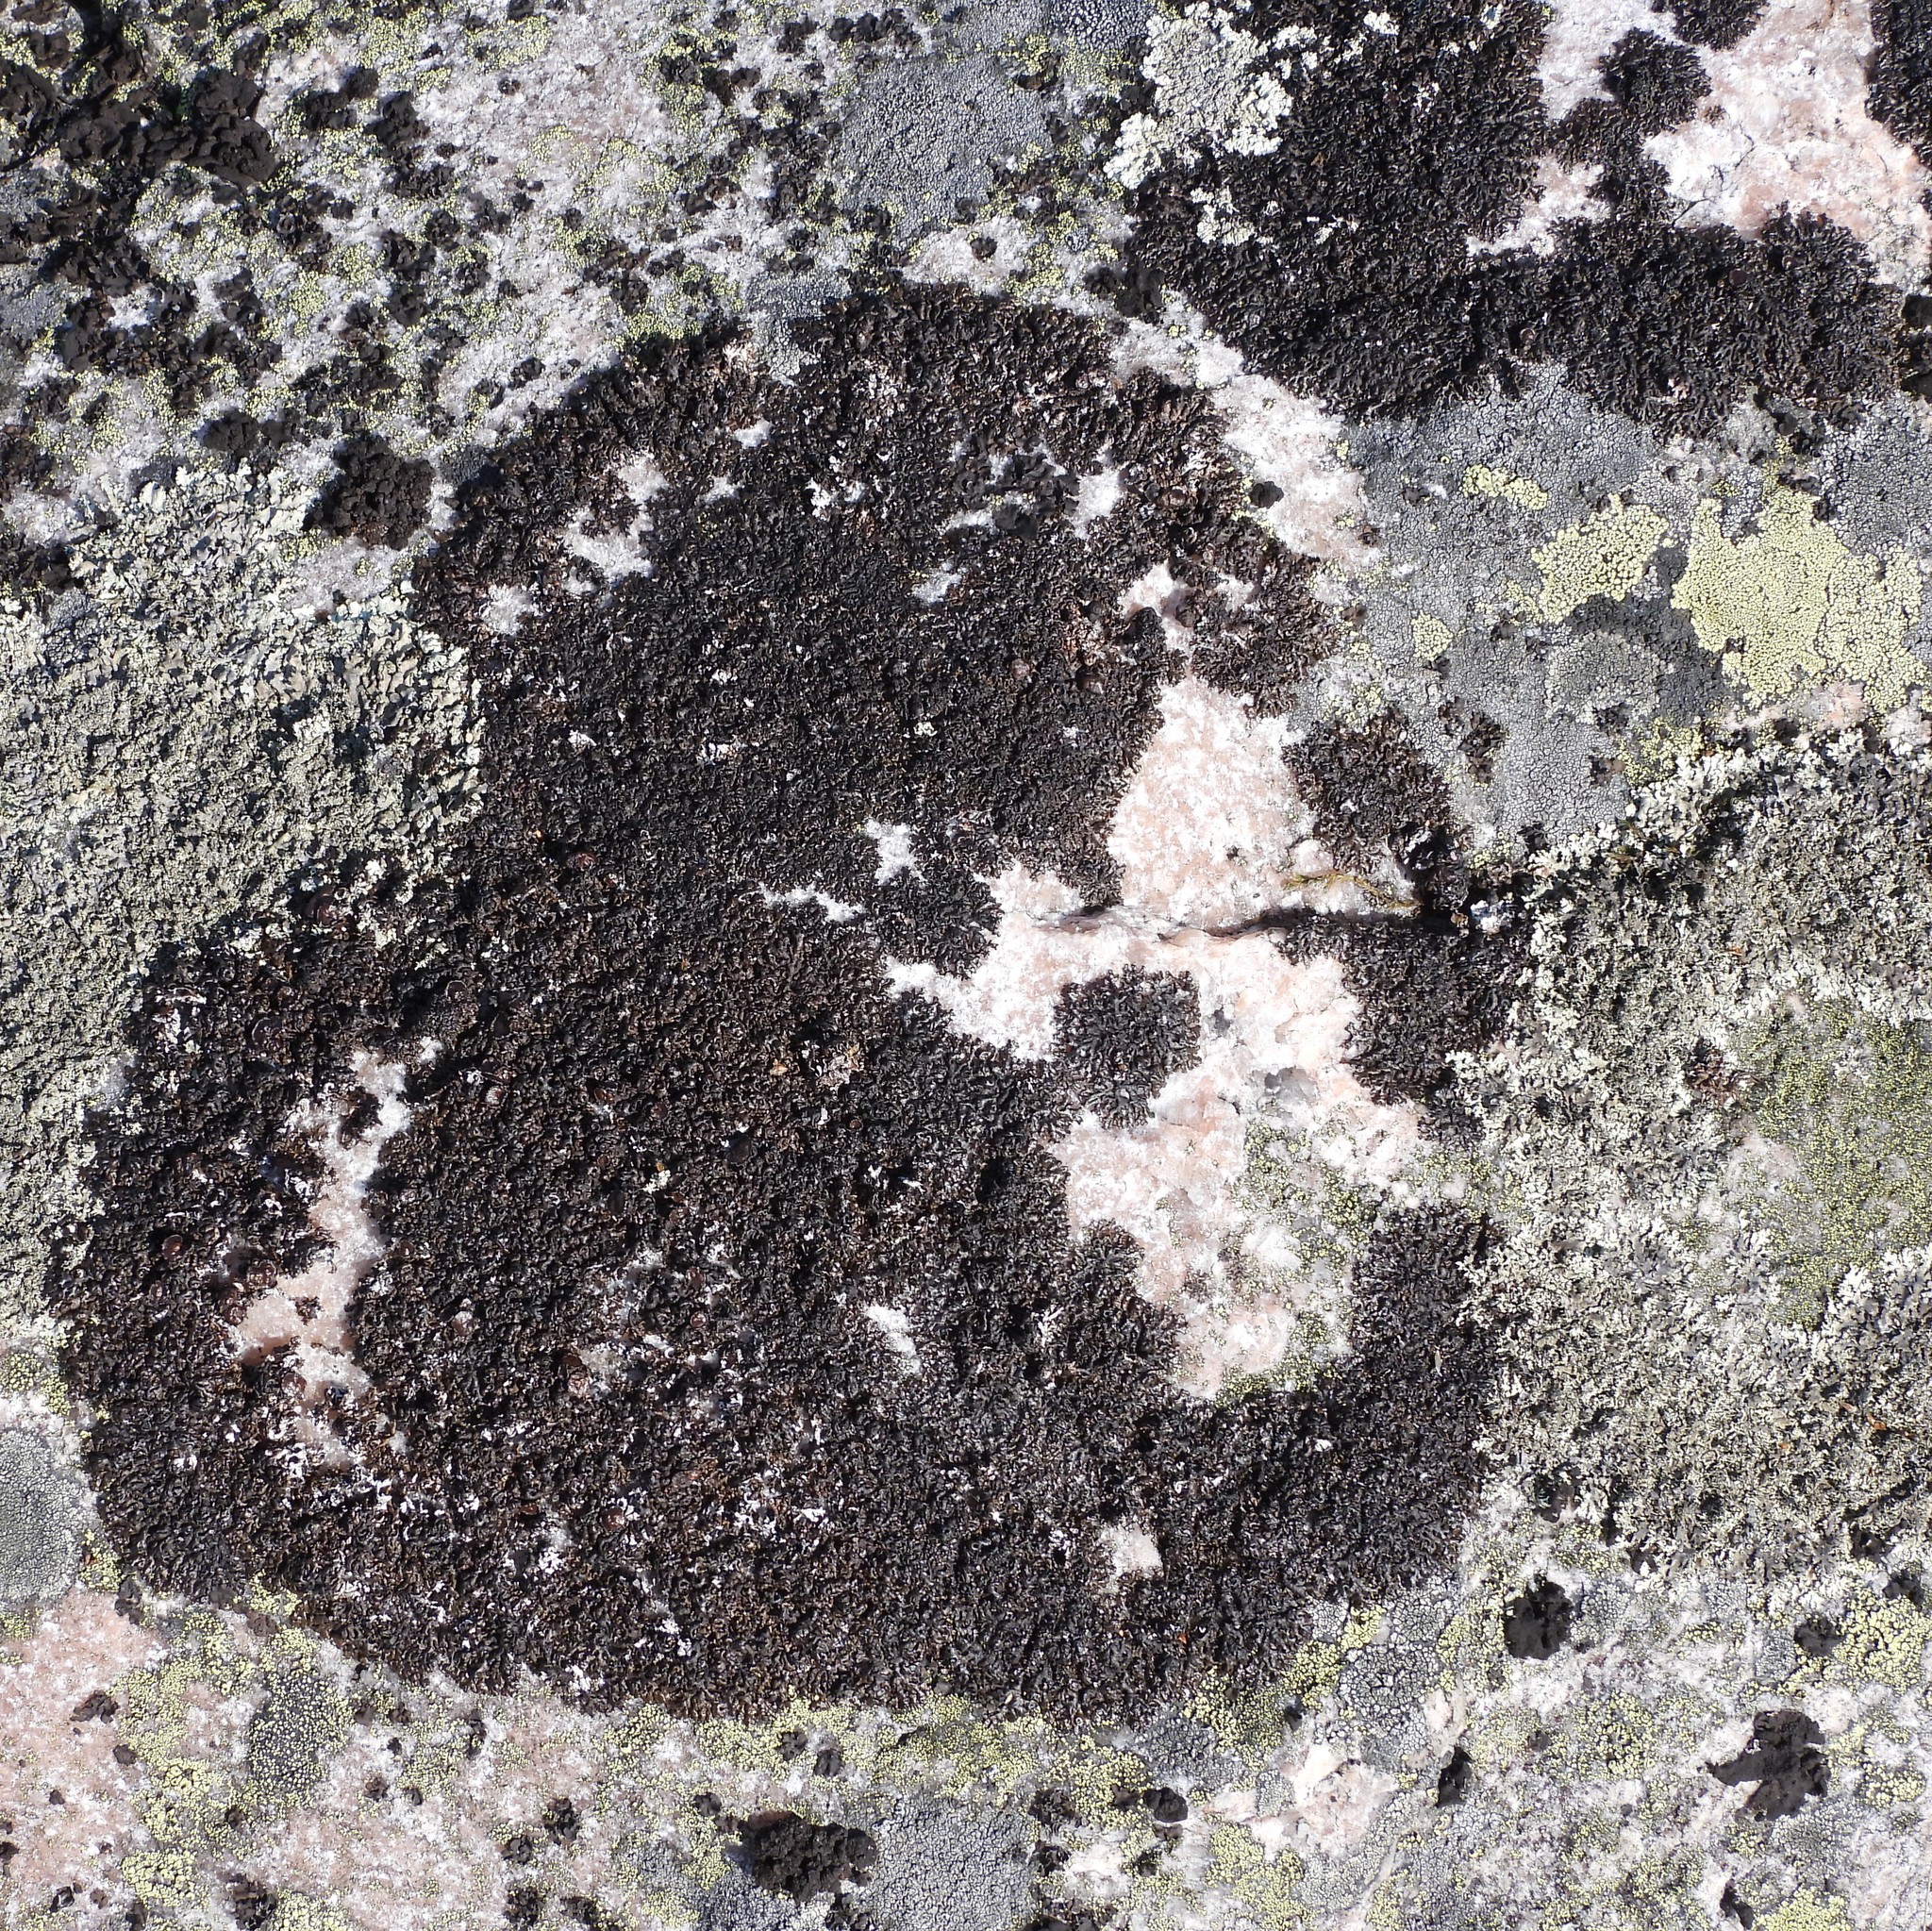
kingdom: Fungi
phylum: Ascomycota
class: Lecanoromycetes
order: Lecanorales
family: Parmeliaceae
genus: Melanelia
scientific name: Melanelia stygia
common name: Alpine camouflage lichen
